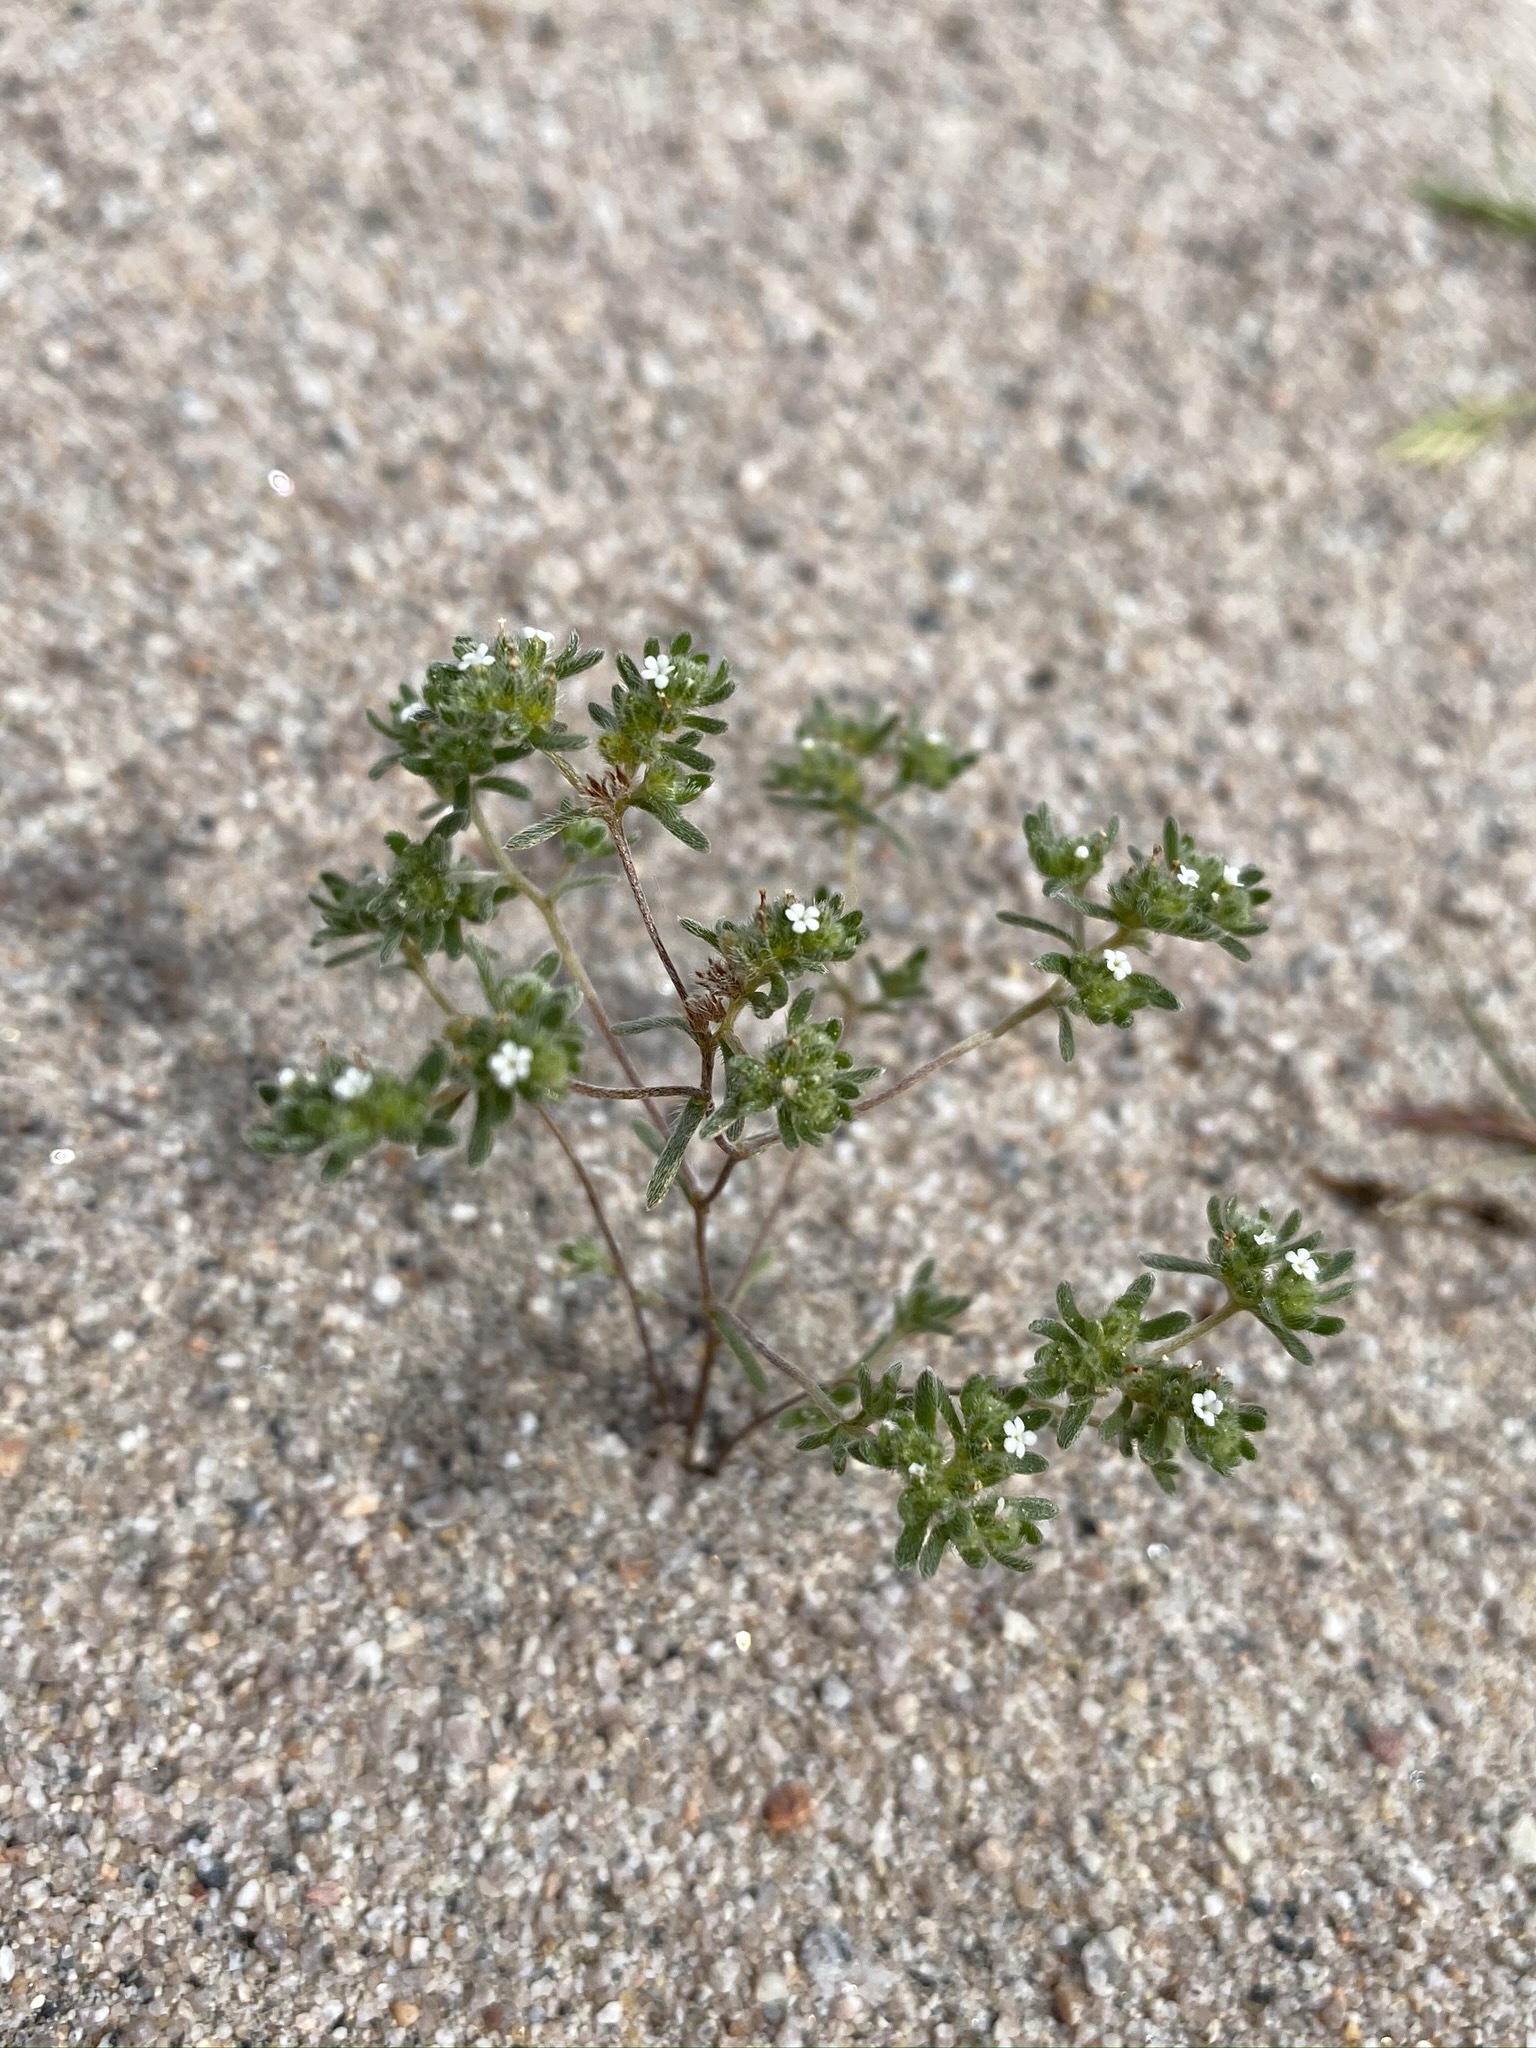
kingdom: Plantae
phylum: Tracheophyta
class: Magnoliopsida
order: Boraginales
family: Boraginaceae
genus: Eremocarya
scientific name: Eremocarya micrantha
